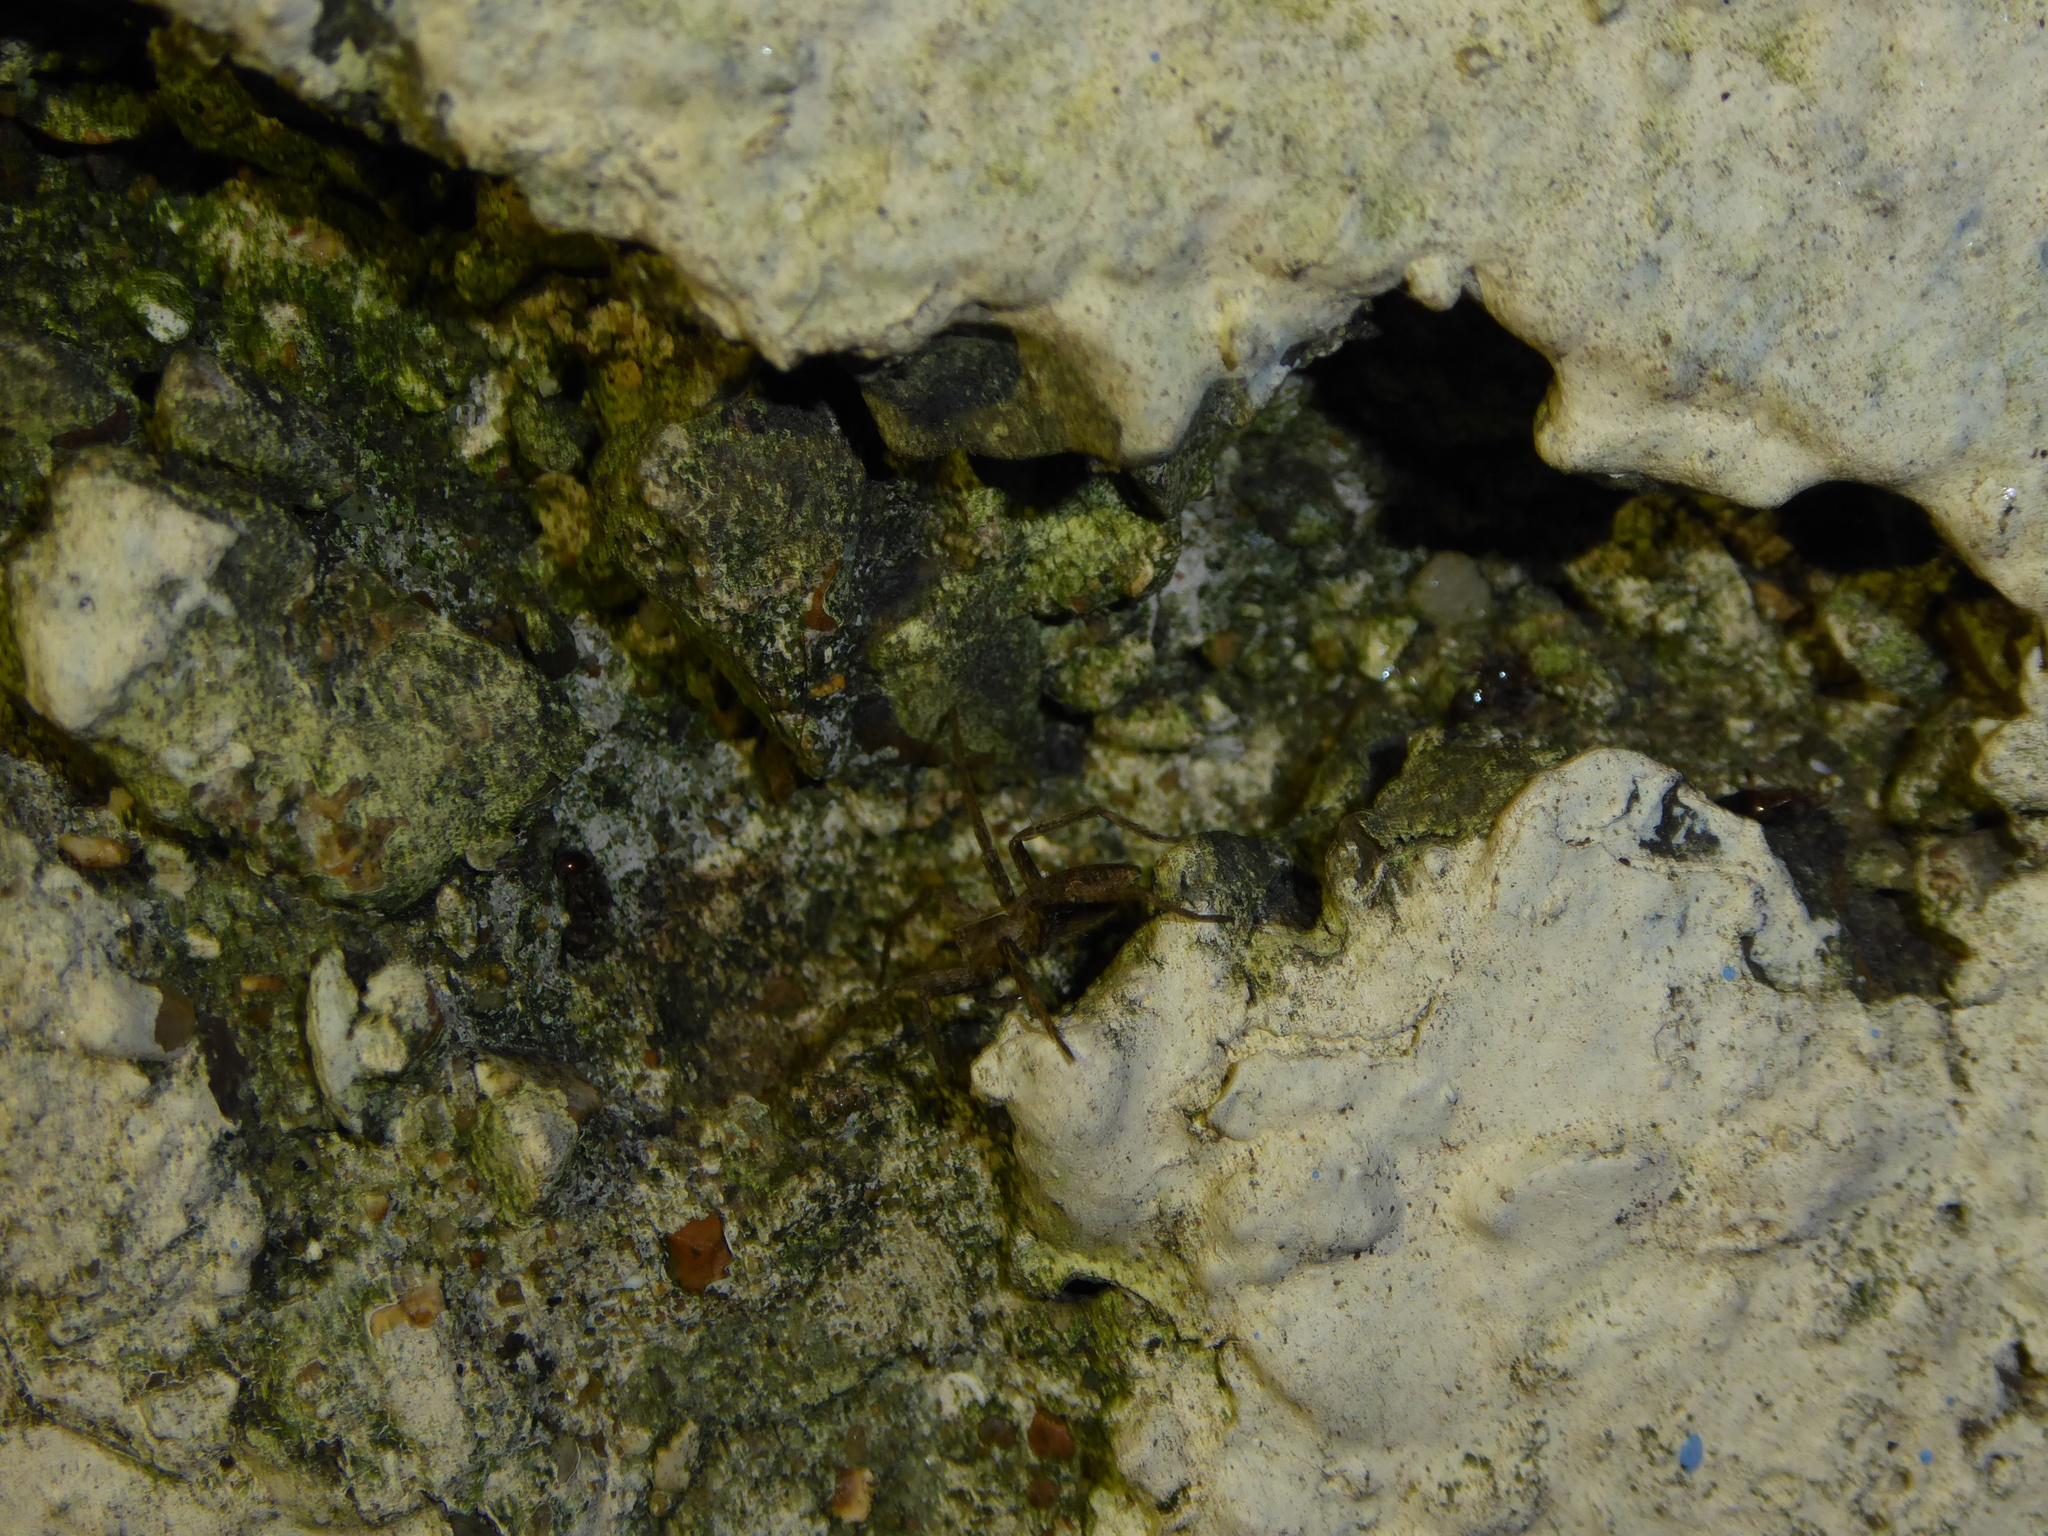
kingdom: Animalia
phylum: Arthropoda
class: Arachnida
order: Araneae
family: Pisauridae
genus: Pisaura
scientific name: Pisaura mirabilis
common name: Tent spider
